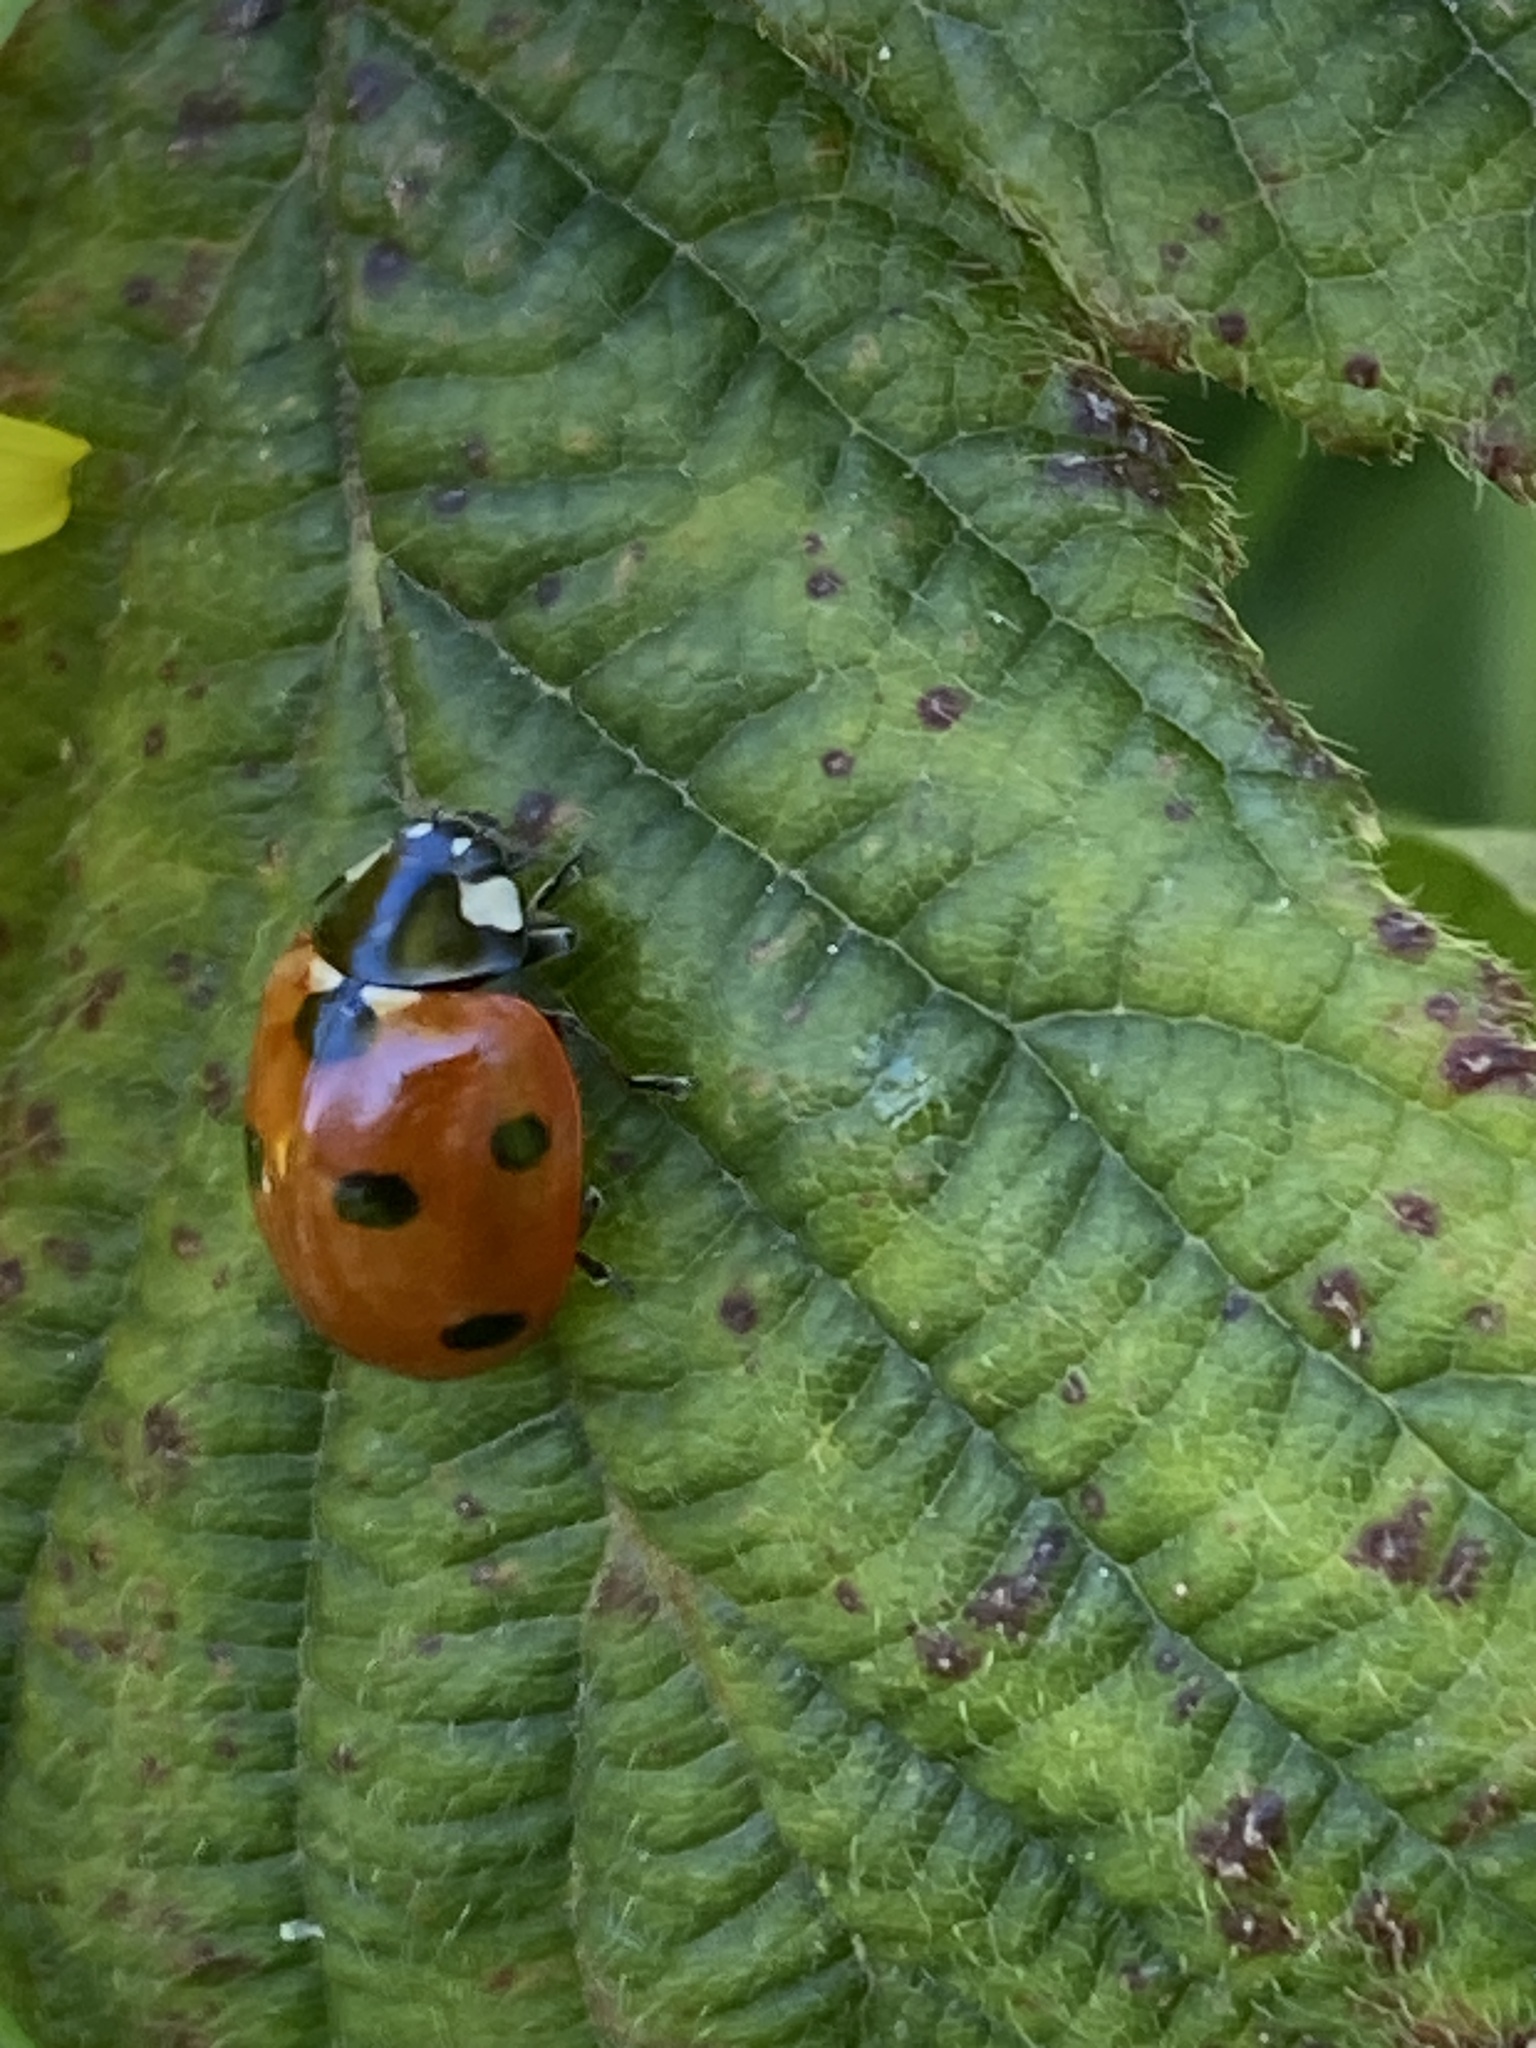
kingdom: Animalia
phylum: Arthropoda
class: Insecta
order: Coleoptera
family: Coccinellidae
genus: Coccinella
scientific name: Coccinella septempunctata
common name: Sevenspotted lady beetle
